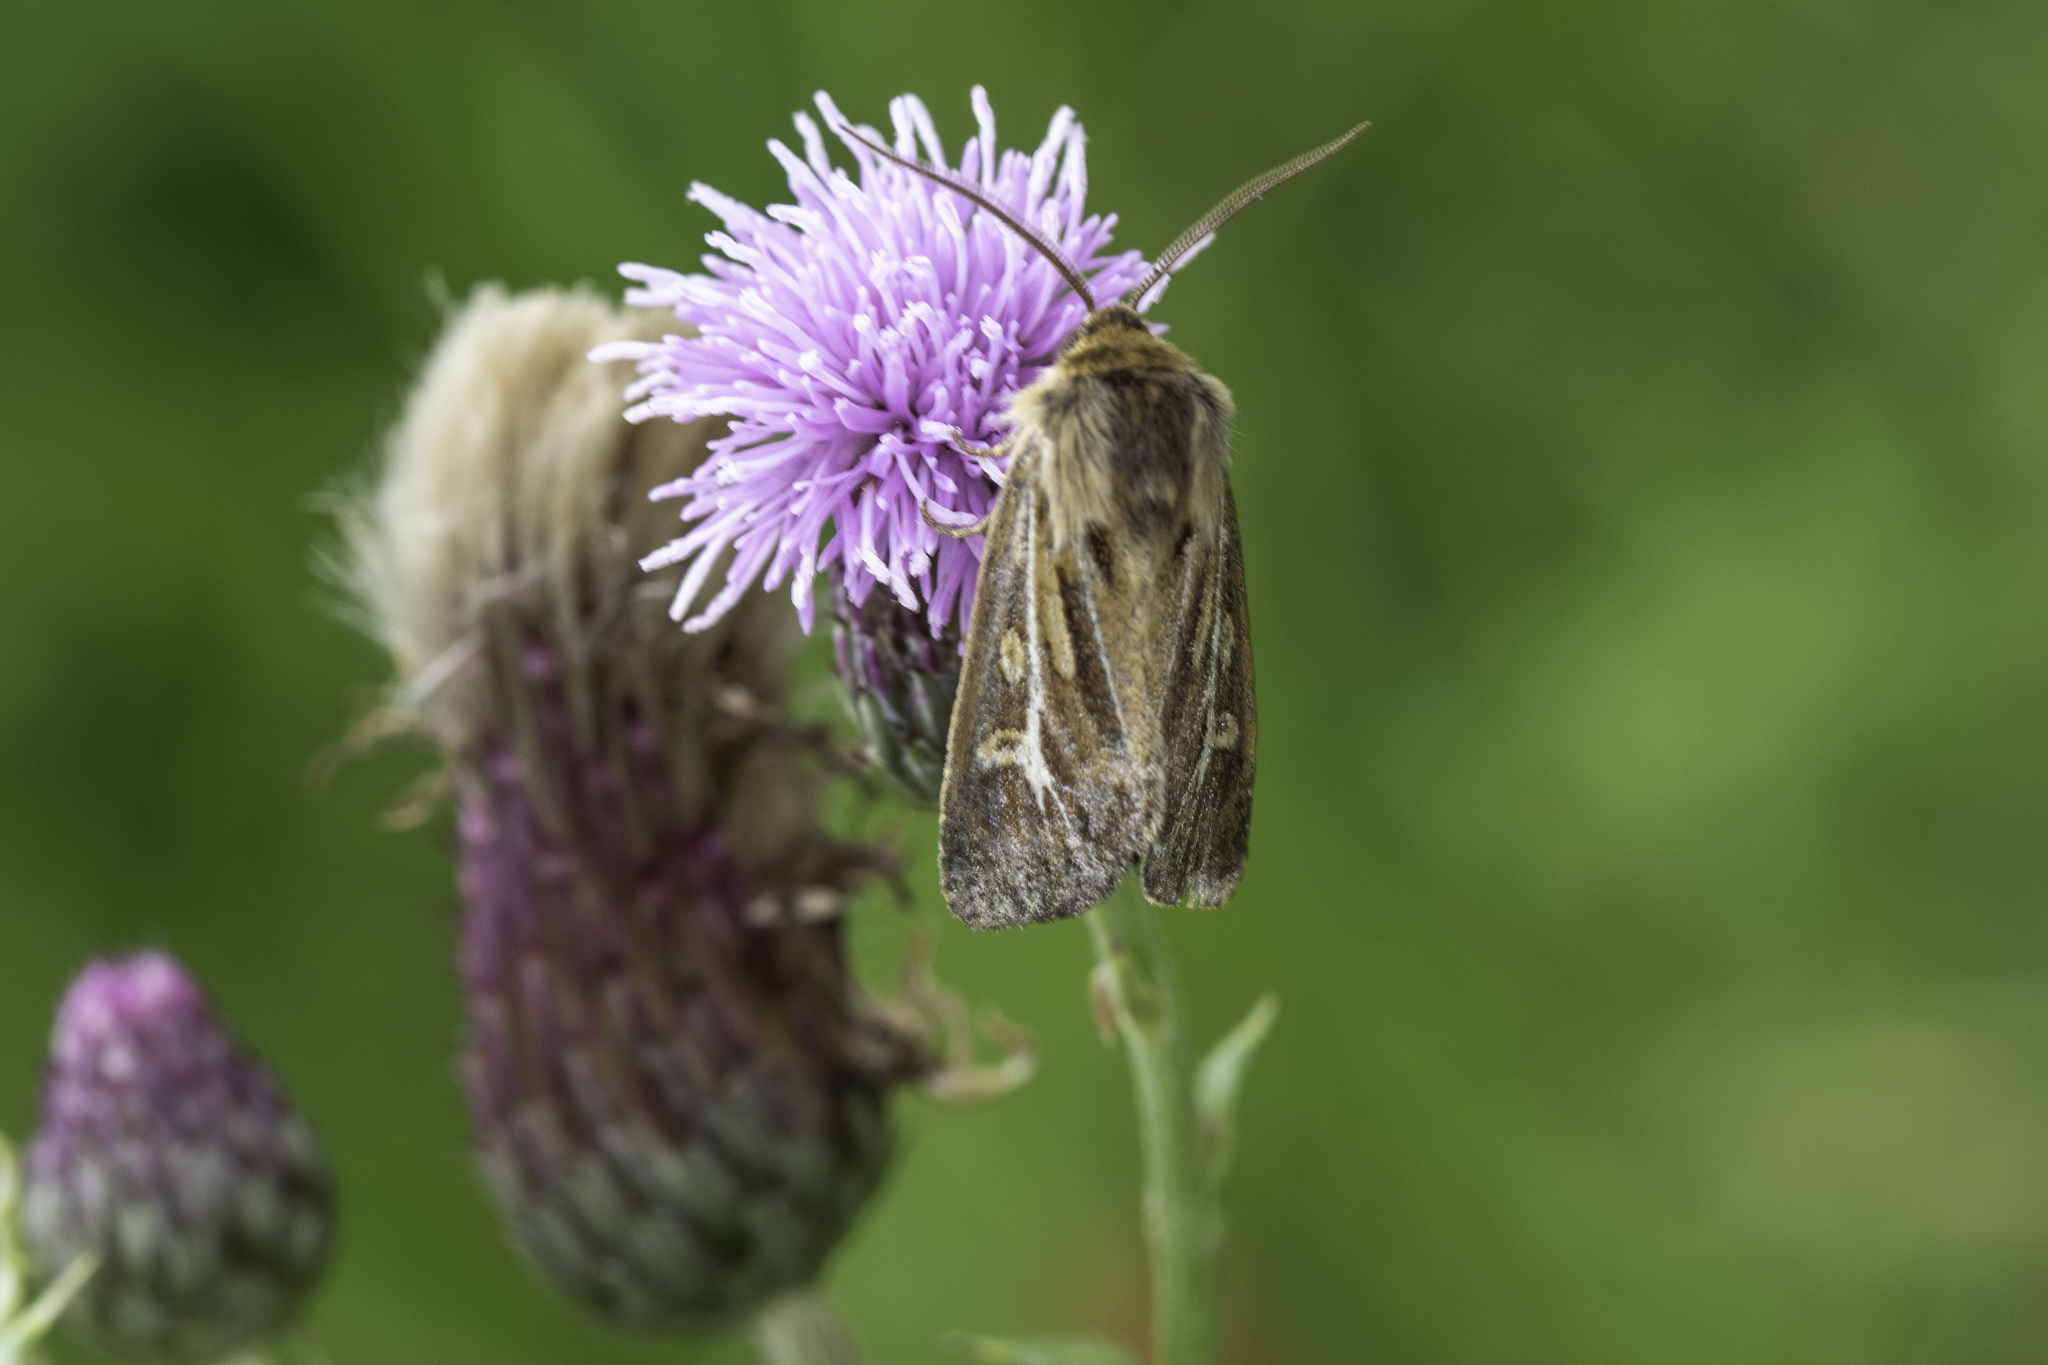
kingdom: Animalia
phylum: Arthropoda
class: Insecta
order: Lepidoptera
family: Noctuidae
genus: Cerapteryx
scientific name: Cerapteryx graminis
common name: Antler moth
